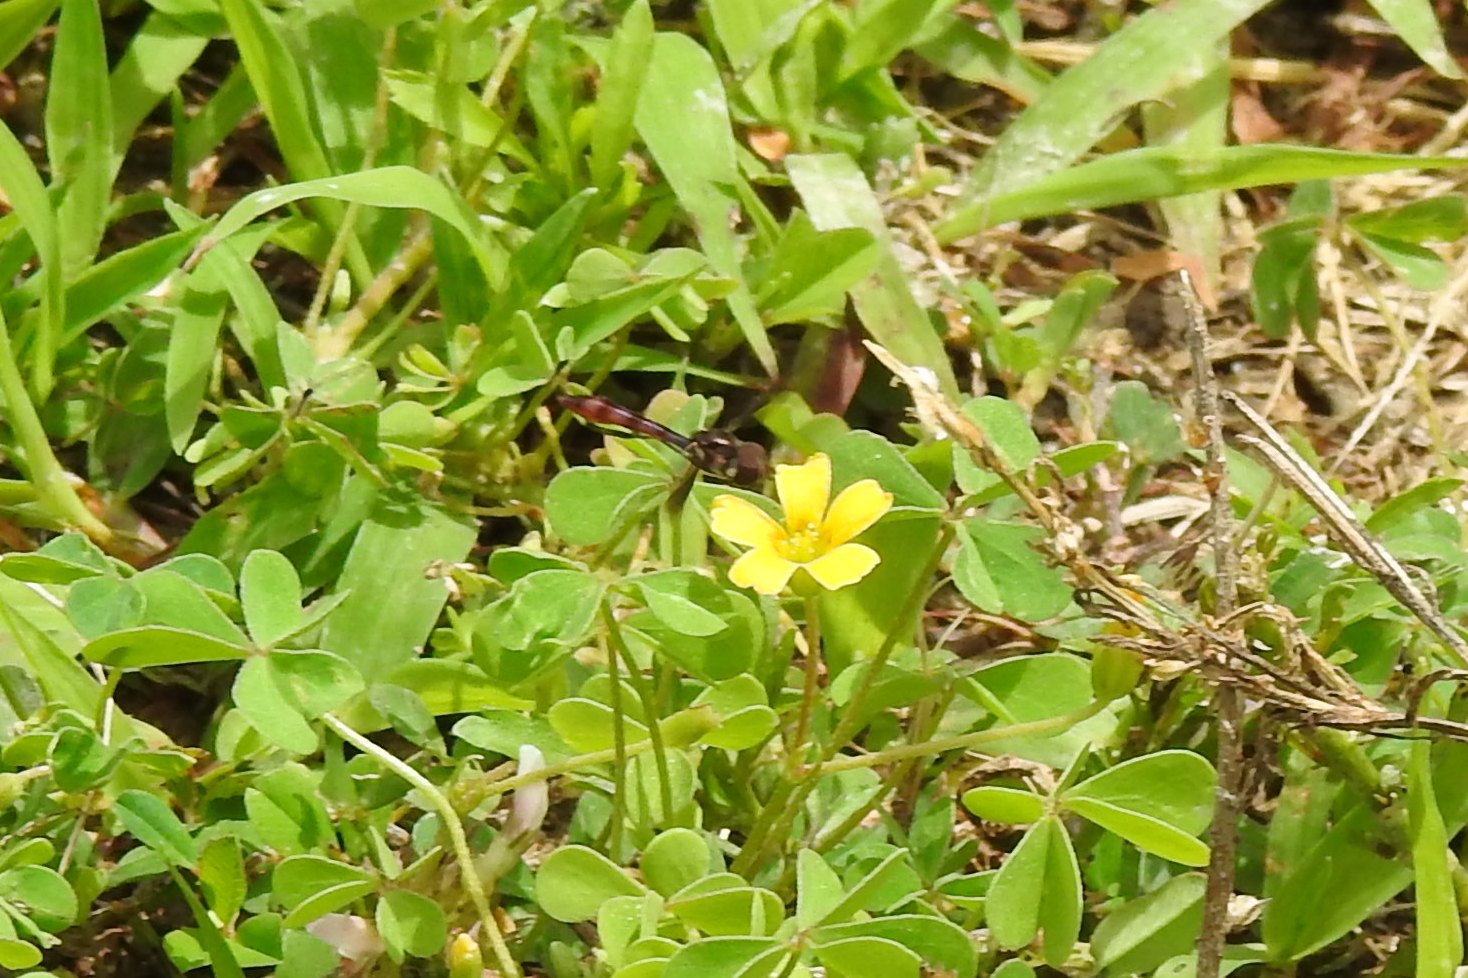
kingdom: Animalia
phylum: Arthropoda
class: Insecta
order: Diptera
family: Syrphidae
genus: Ocyptamus
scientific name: Ocyptamus fuscipennis
